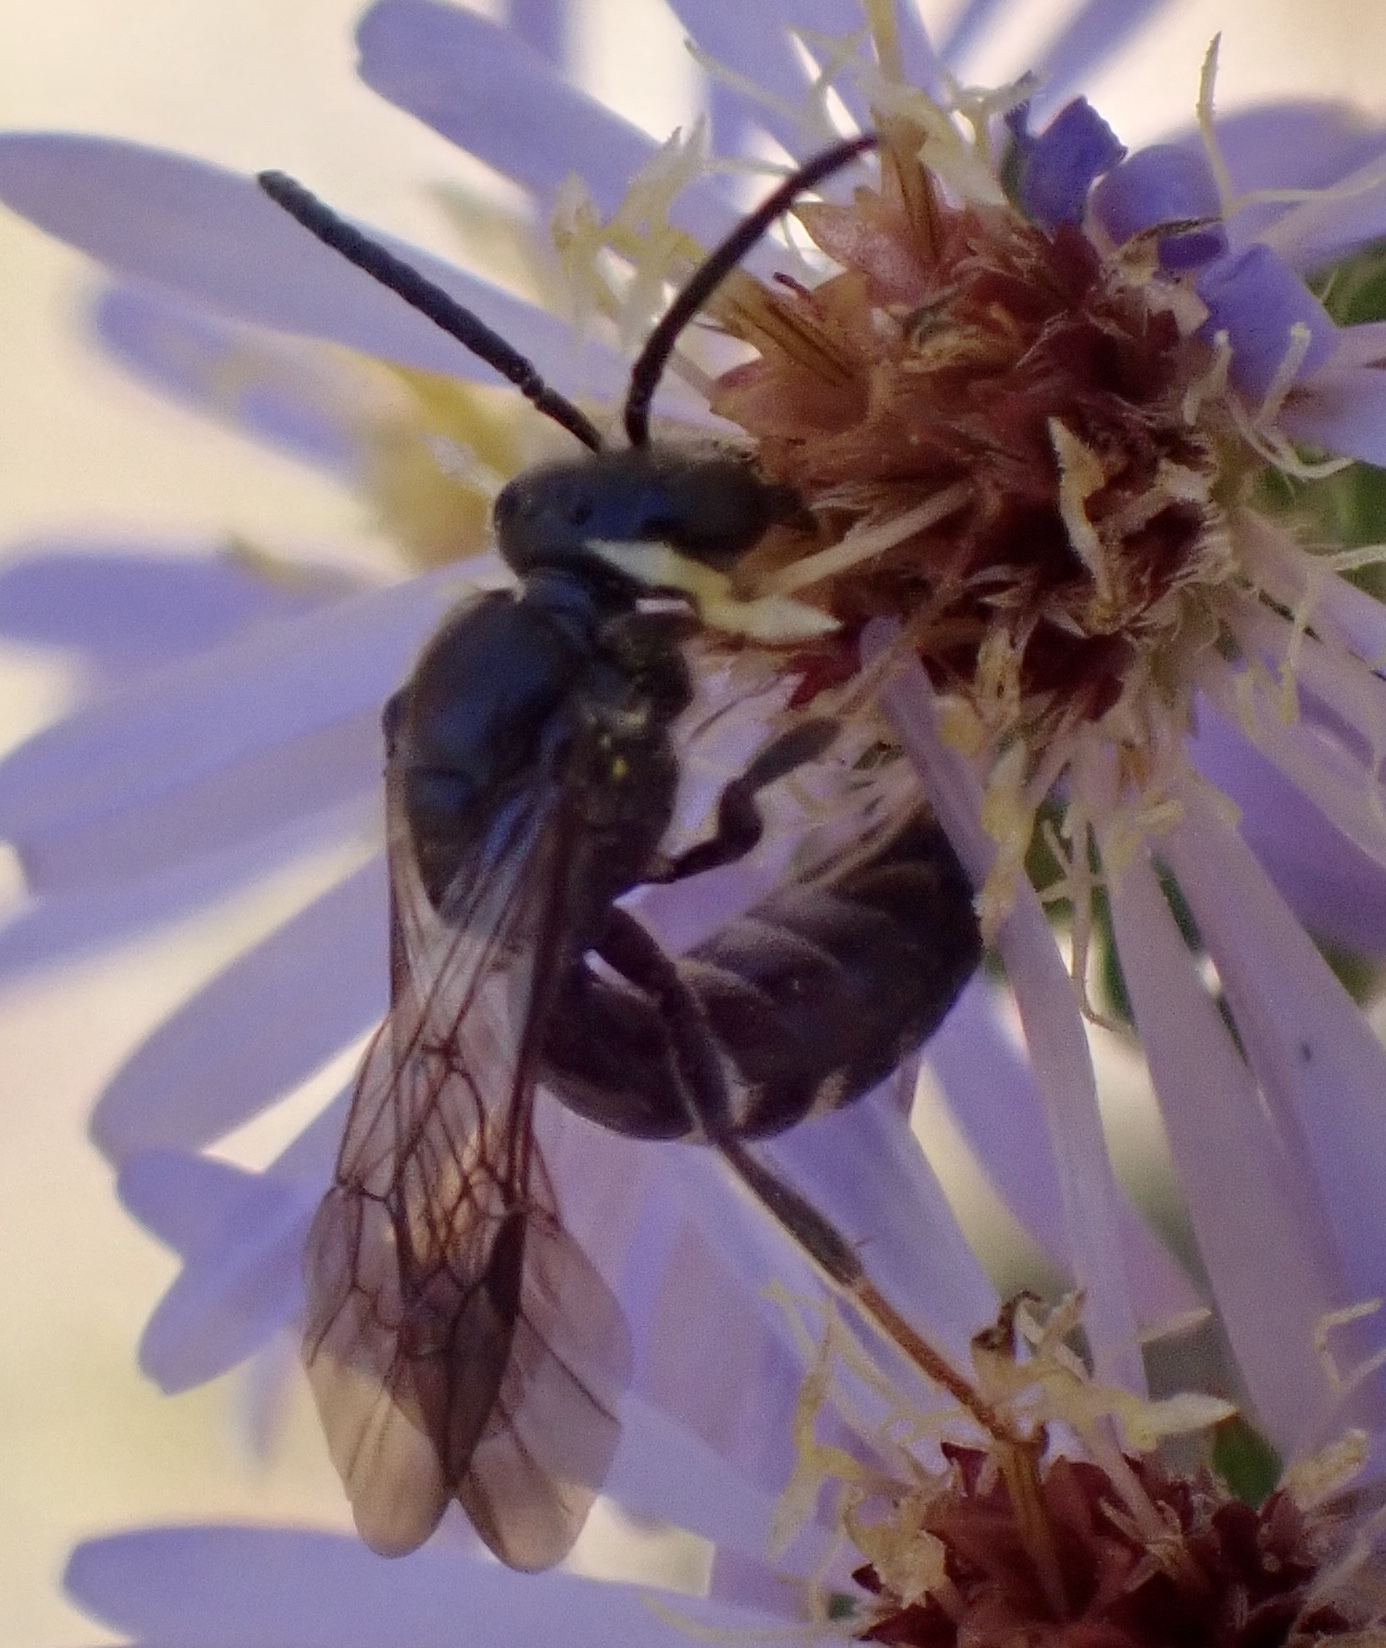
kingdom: Animalia
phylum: Arthropoda
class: Insecta
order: Hymenoptera
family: Halictidae
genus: Lasioglossum
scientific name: Lasioglossum fuscipenne
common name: Brown-winged sweat bee
